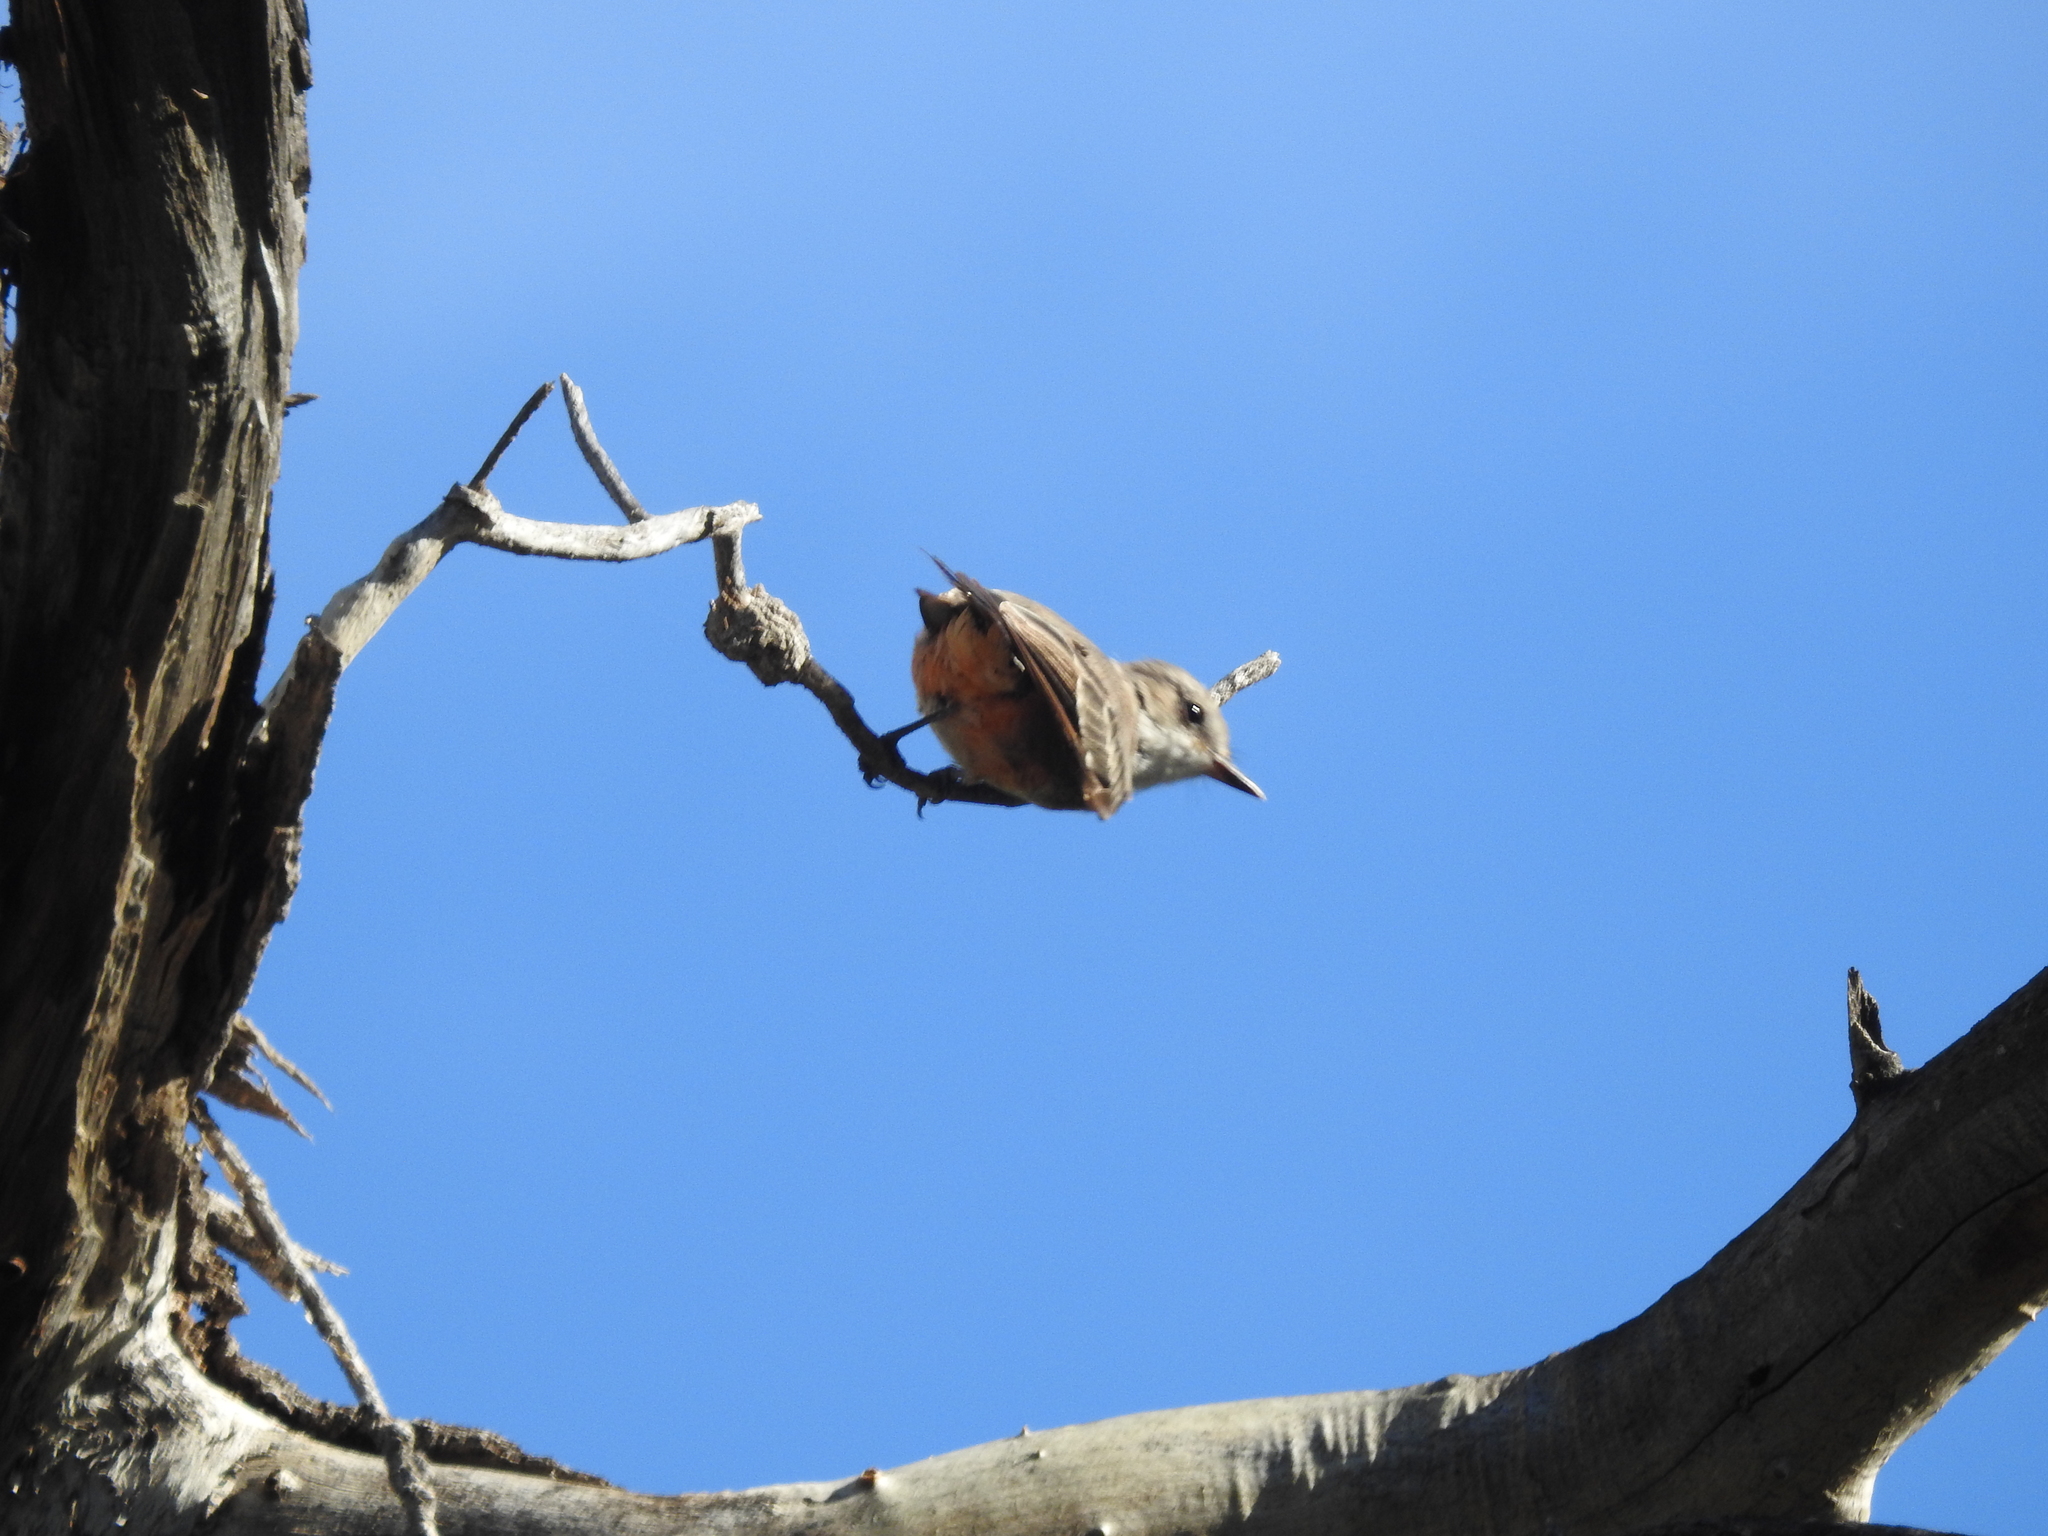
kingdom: Animalia
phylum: Chordata
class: Aves
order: Passeriformes
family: Tyrannidae
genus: Pyrocephalus
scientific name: Pyrocephalus rubinus
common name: Vermilion flycatcher
